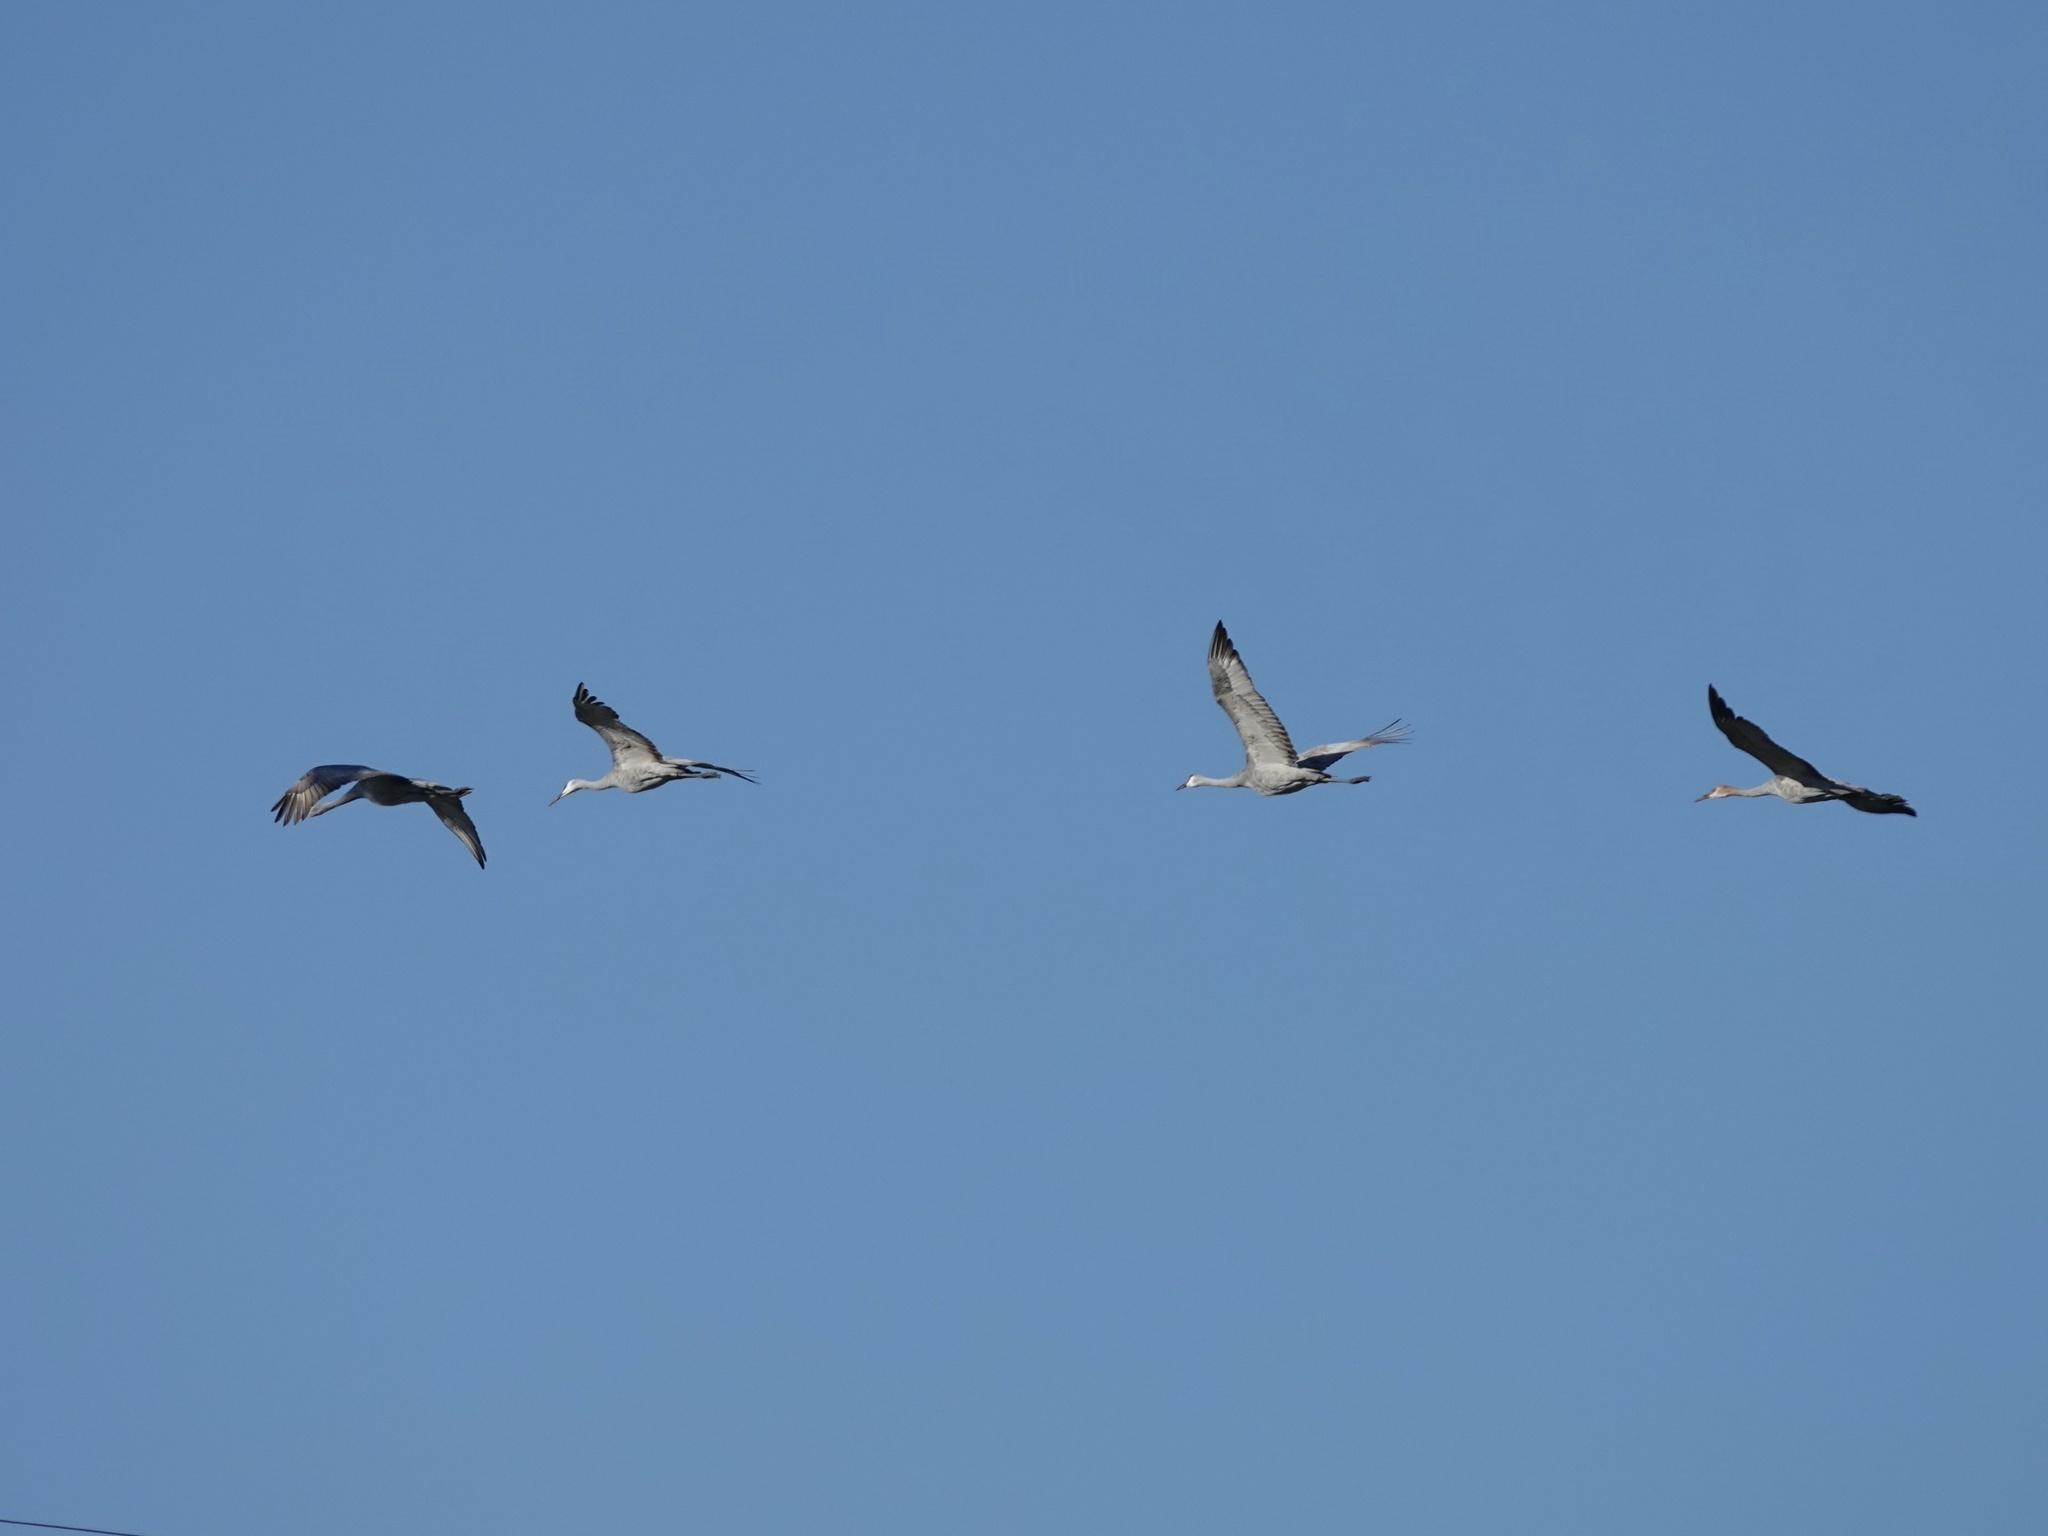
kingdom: Animalia
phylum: Chordata
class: Aves
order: Gruiformes
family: Gruidae
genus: Grus
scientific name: Grus canadensis
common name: Sandhill crane
